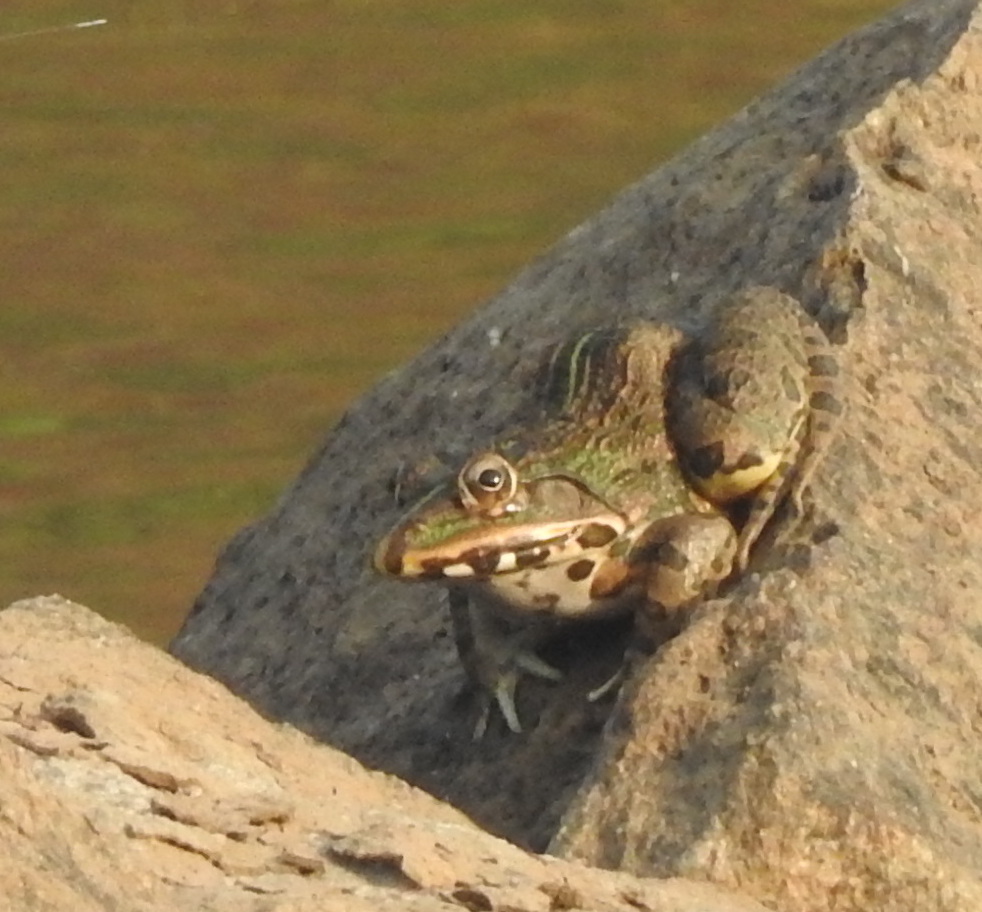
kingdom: Animalia
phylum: Chordata
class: Amphibia
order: Anura
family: Dicroglossidae
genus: Hoplobatrachus
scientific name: Hoplobatrachus tigerinus
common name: Indian bullfrog
